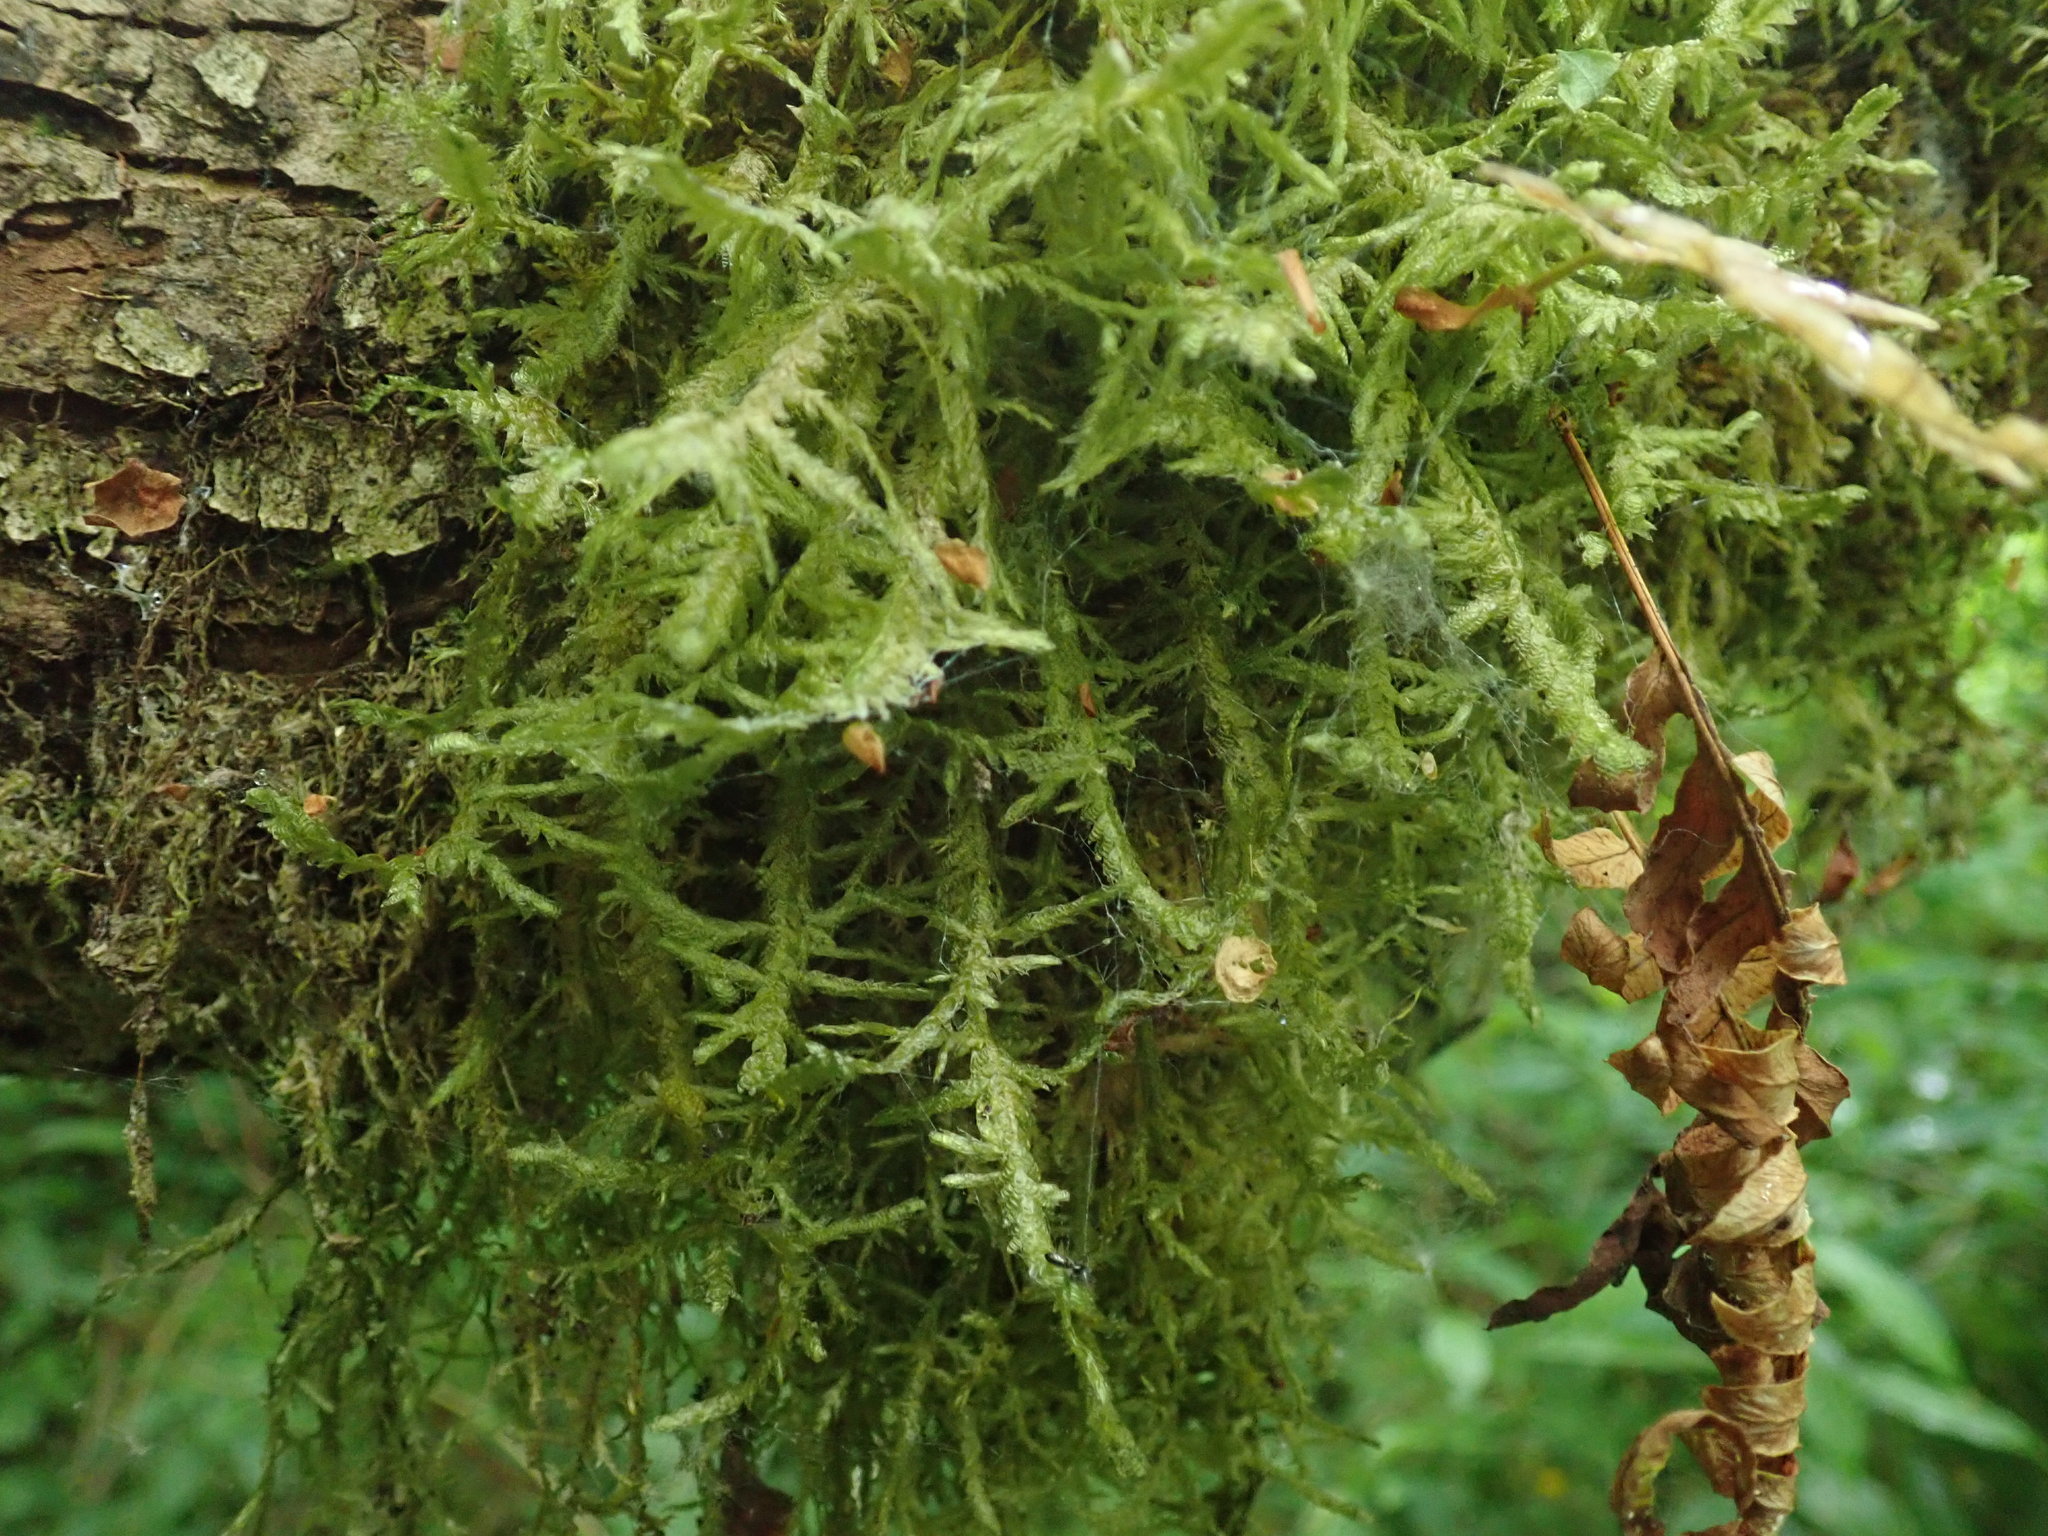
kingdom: Plantae
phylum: Bryophyta
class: Bryopsida
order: Hypnales
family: Neckeraceae
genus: Neckera
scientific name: Neckera douglasii
